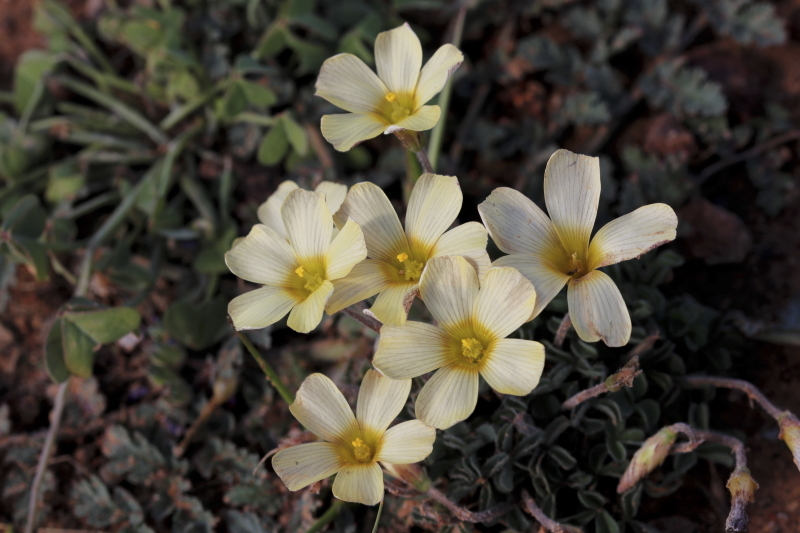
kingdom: Plantae
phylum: Tracheophyta
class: Magnoliopsida
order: Oxalidales
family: Oxalidaceae
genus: Oxalis
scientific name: Oxalis obtusa
